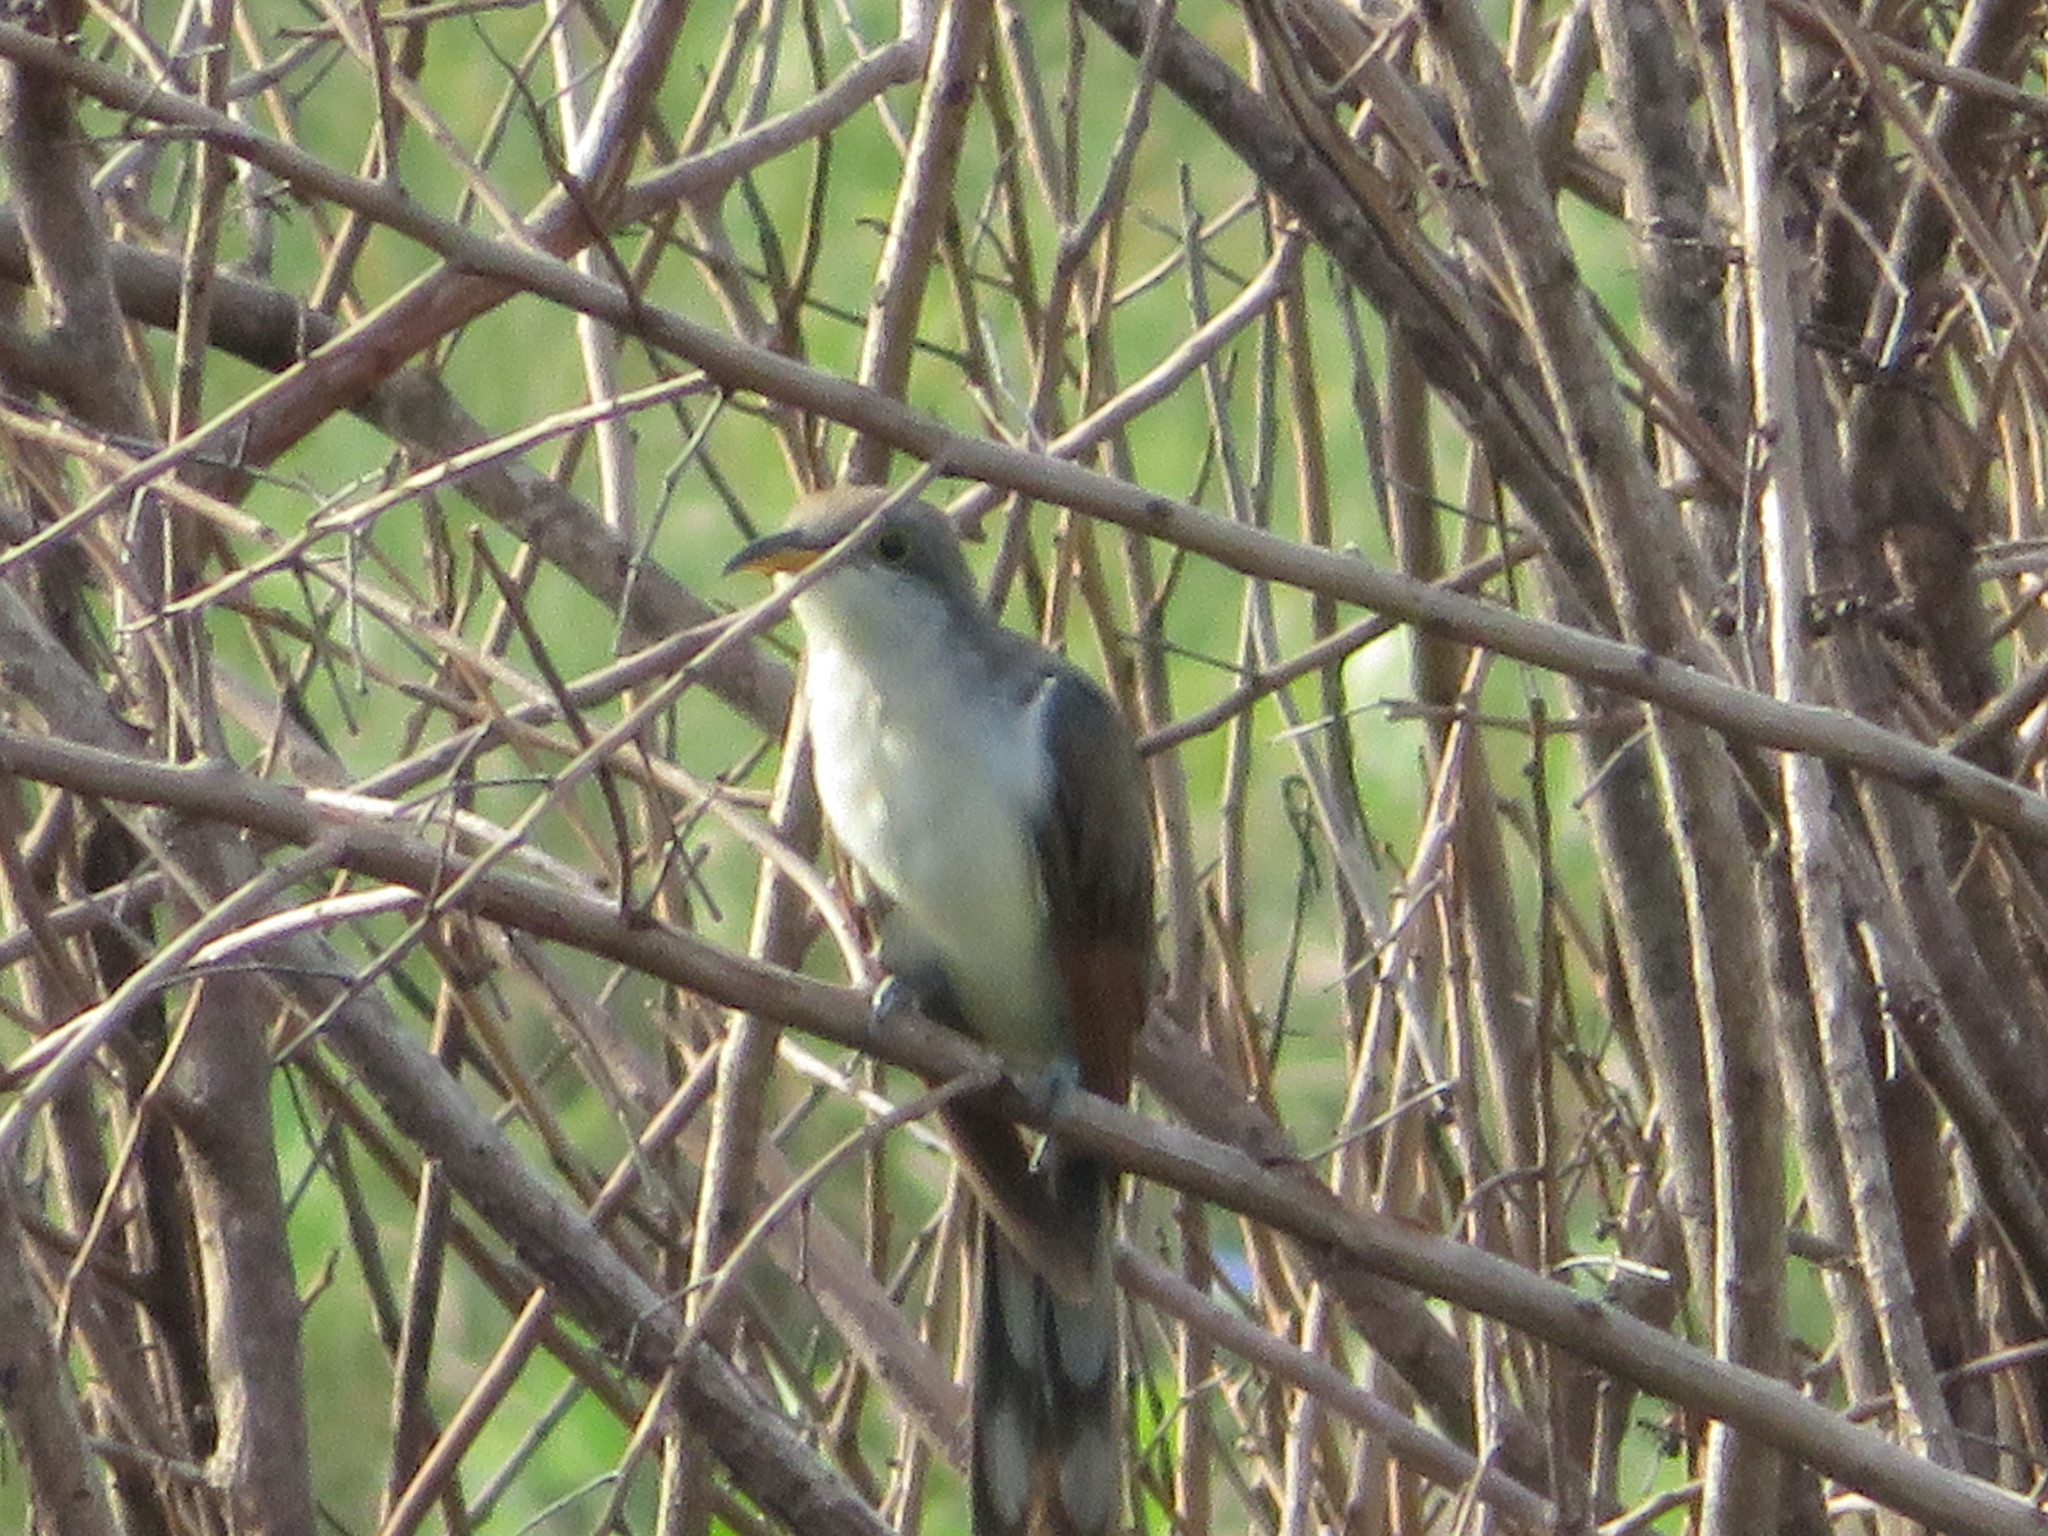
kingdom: Animalia
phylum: Chordata
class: Aves
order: Cuculiformes
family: Cuculidae
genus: Coccyzus
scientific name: Coccyzus americanus
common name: Yellow-billed cuckoo
